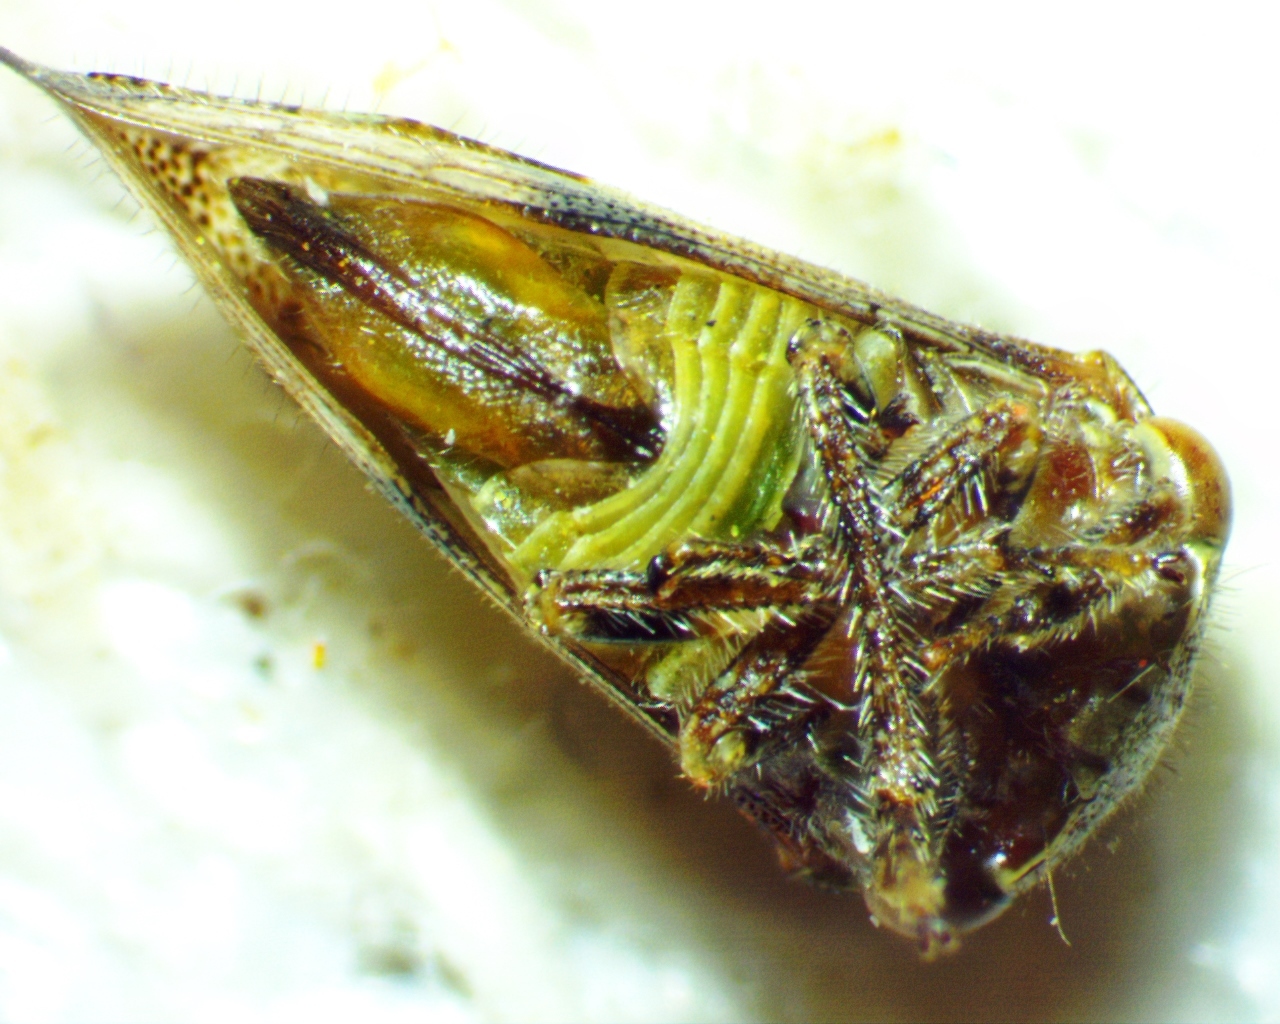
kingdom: Animalia
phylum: Arthropoda
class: Insecta
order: Hemiptera
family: Membracidae
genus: Ophiderma
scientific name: Ophiderma definita
